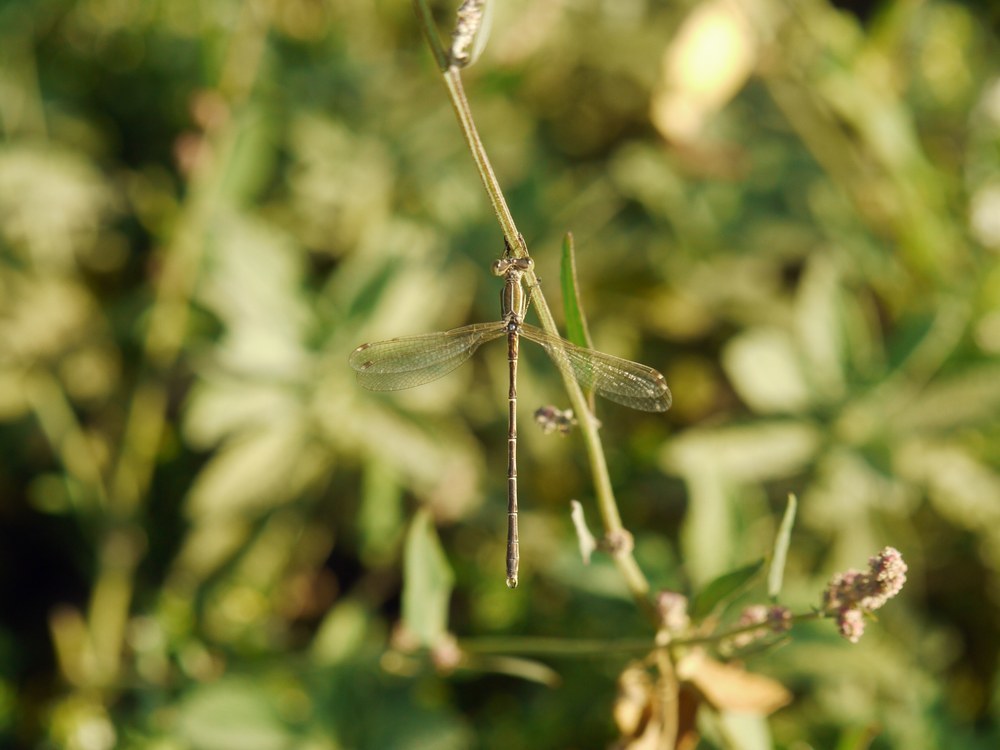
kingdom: Animalia
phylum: Arthropoda
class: Insecta
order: Odonata
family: Lestidae
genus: Lestes
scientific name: Lestes barbarus
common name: Migrant spreadwing
